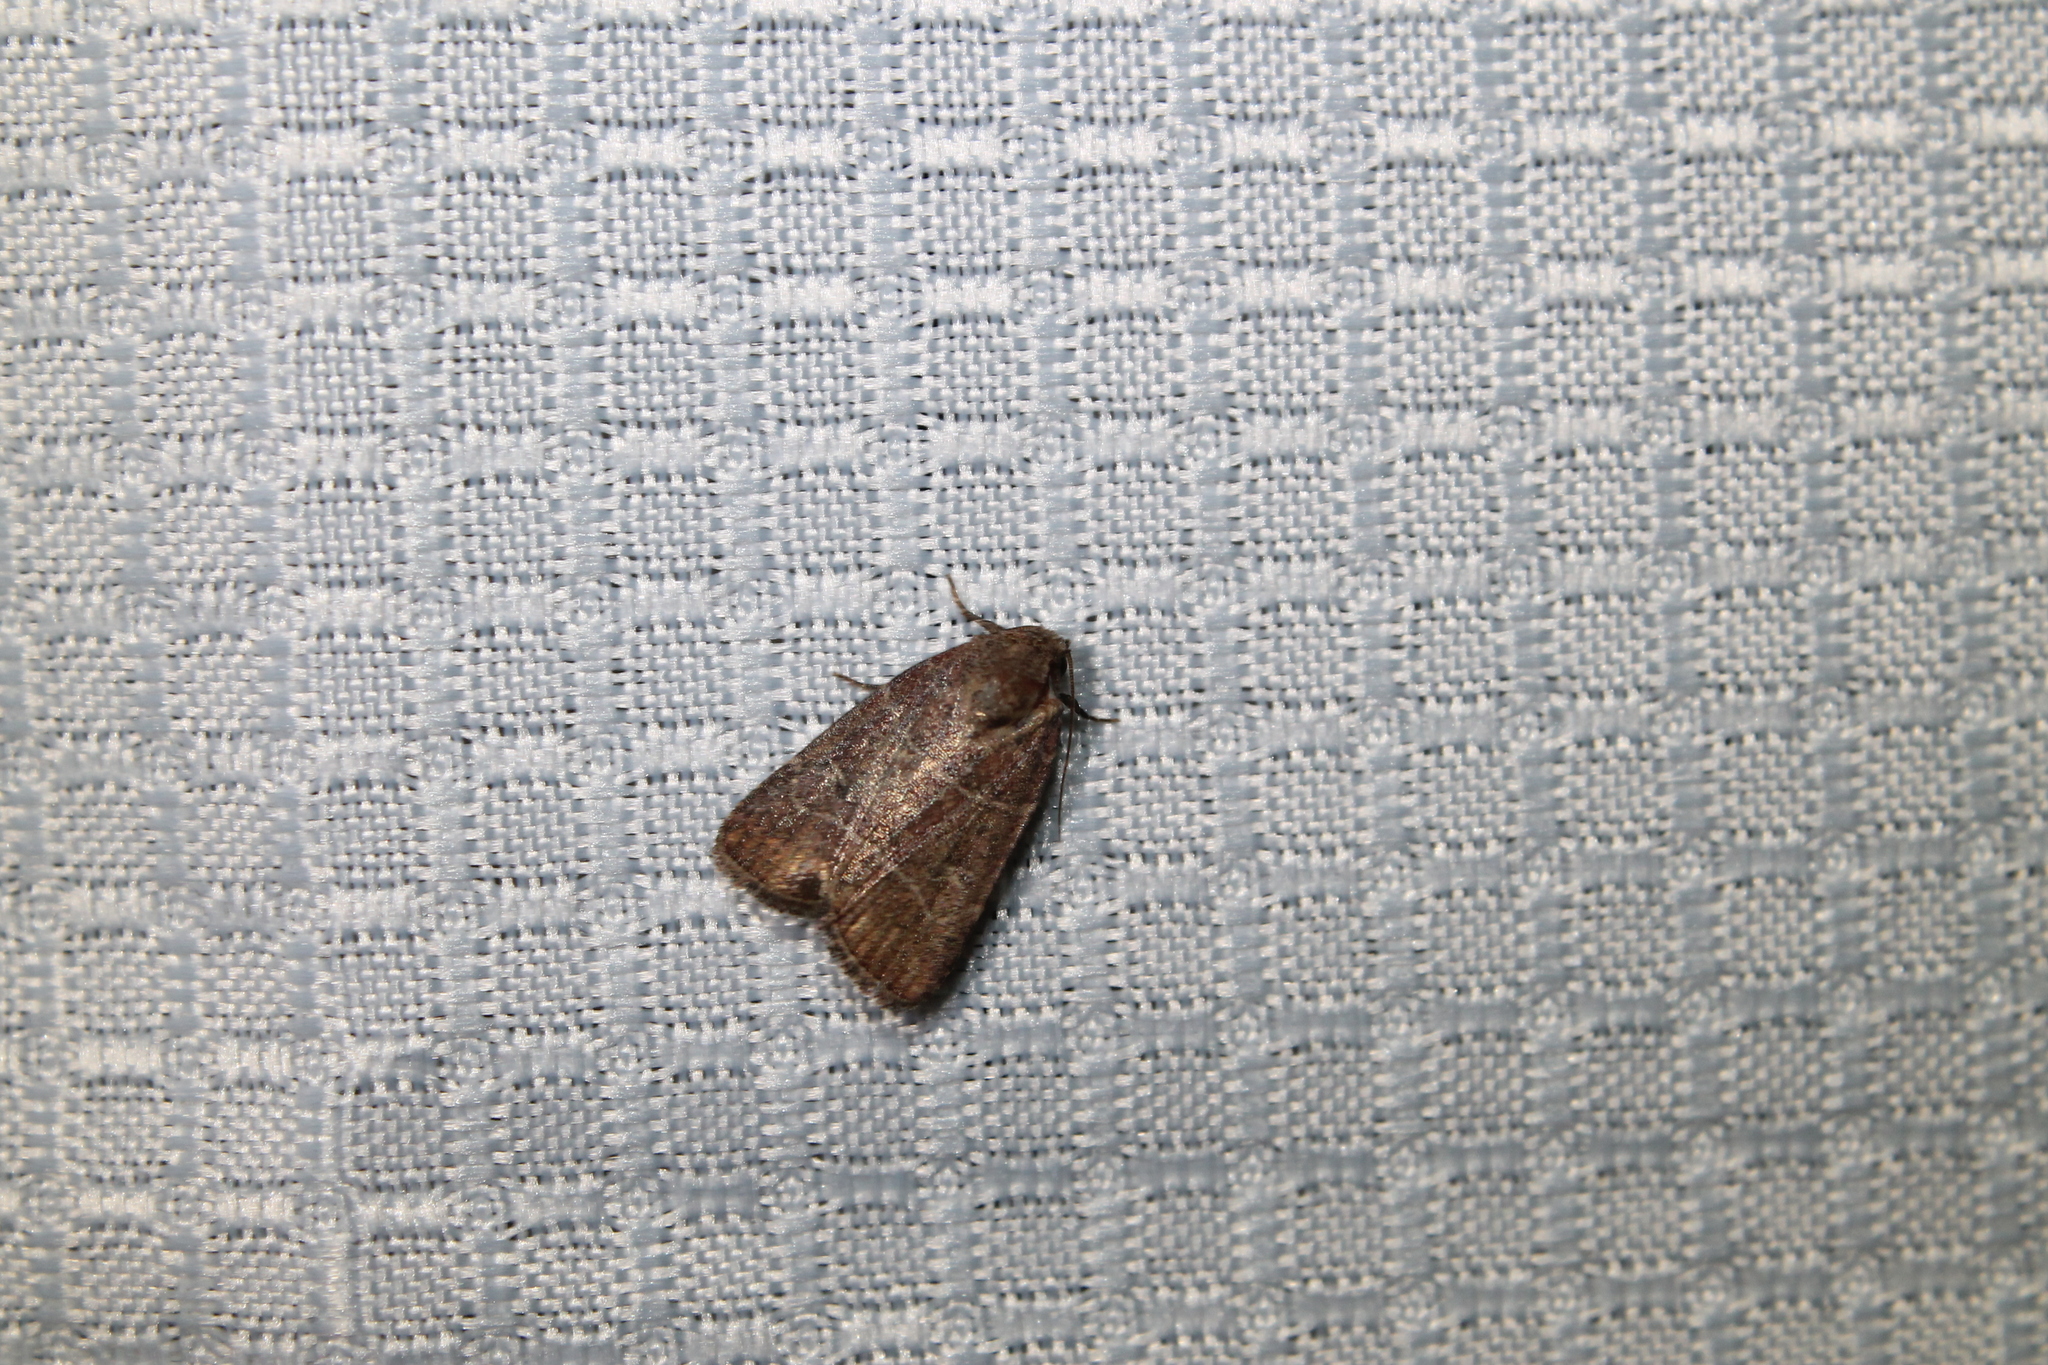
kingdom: Animalia
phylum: Arthropoda
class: Insecta
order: Lepidoptera
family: Noctuidae
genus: Elaphria
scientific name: Elaphria grata
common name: Grateful midget moth
